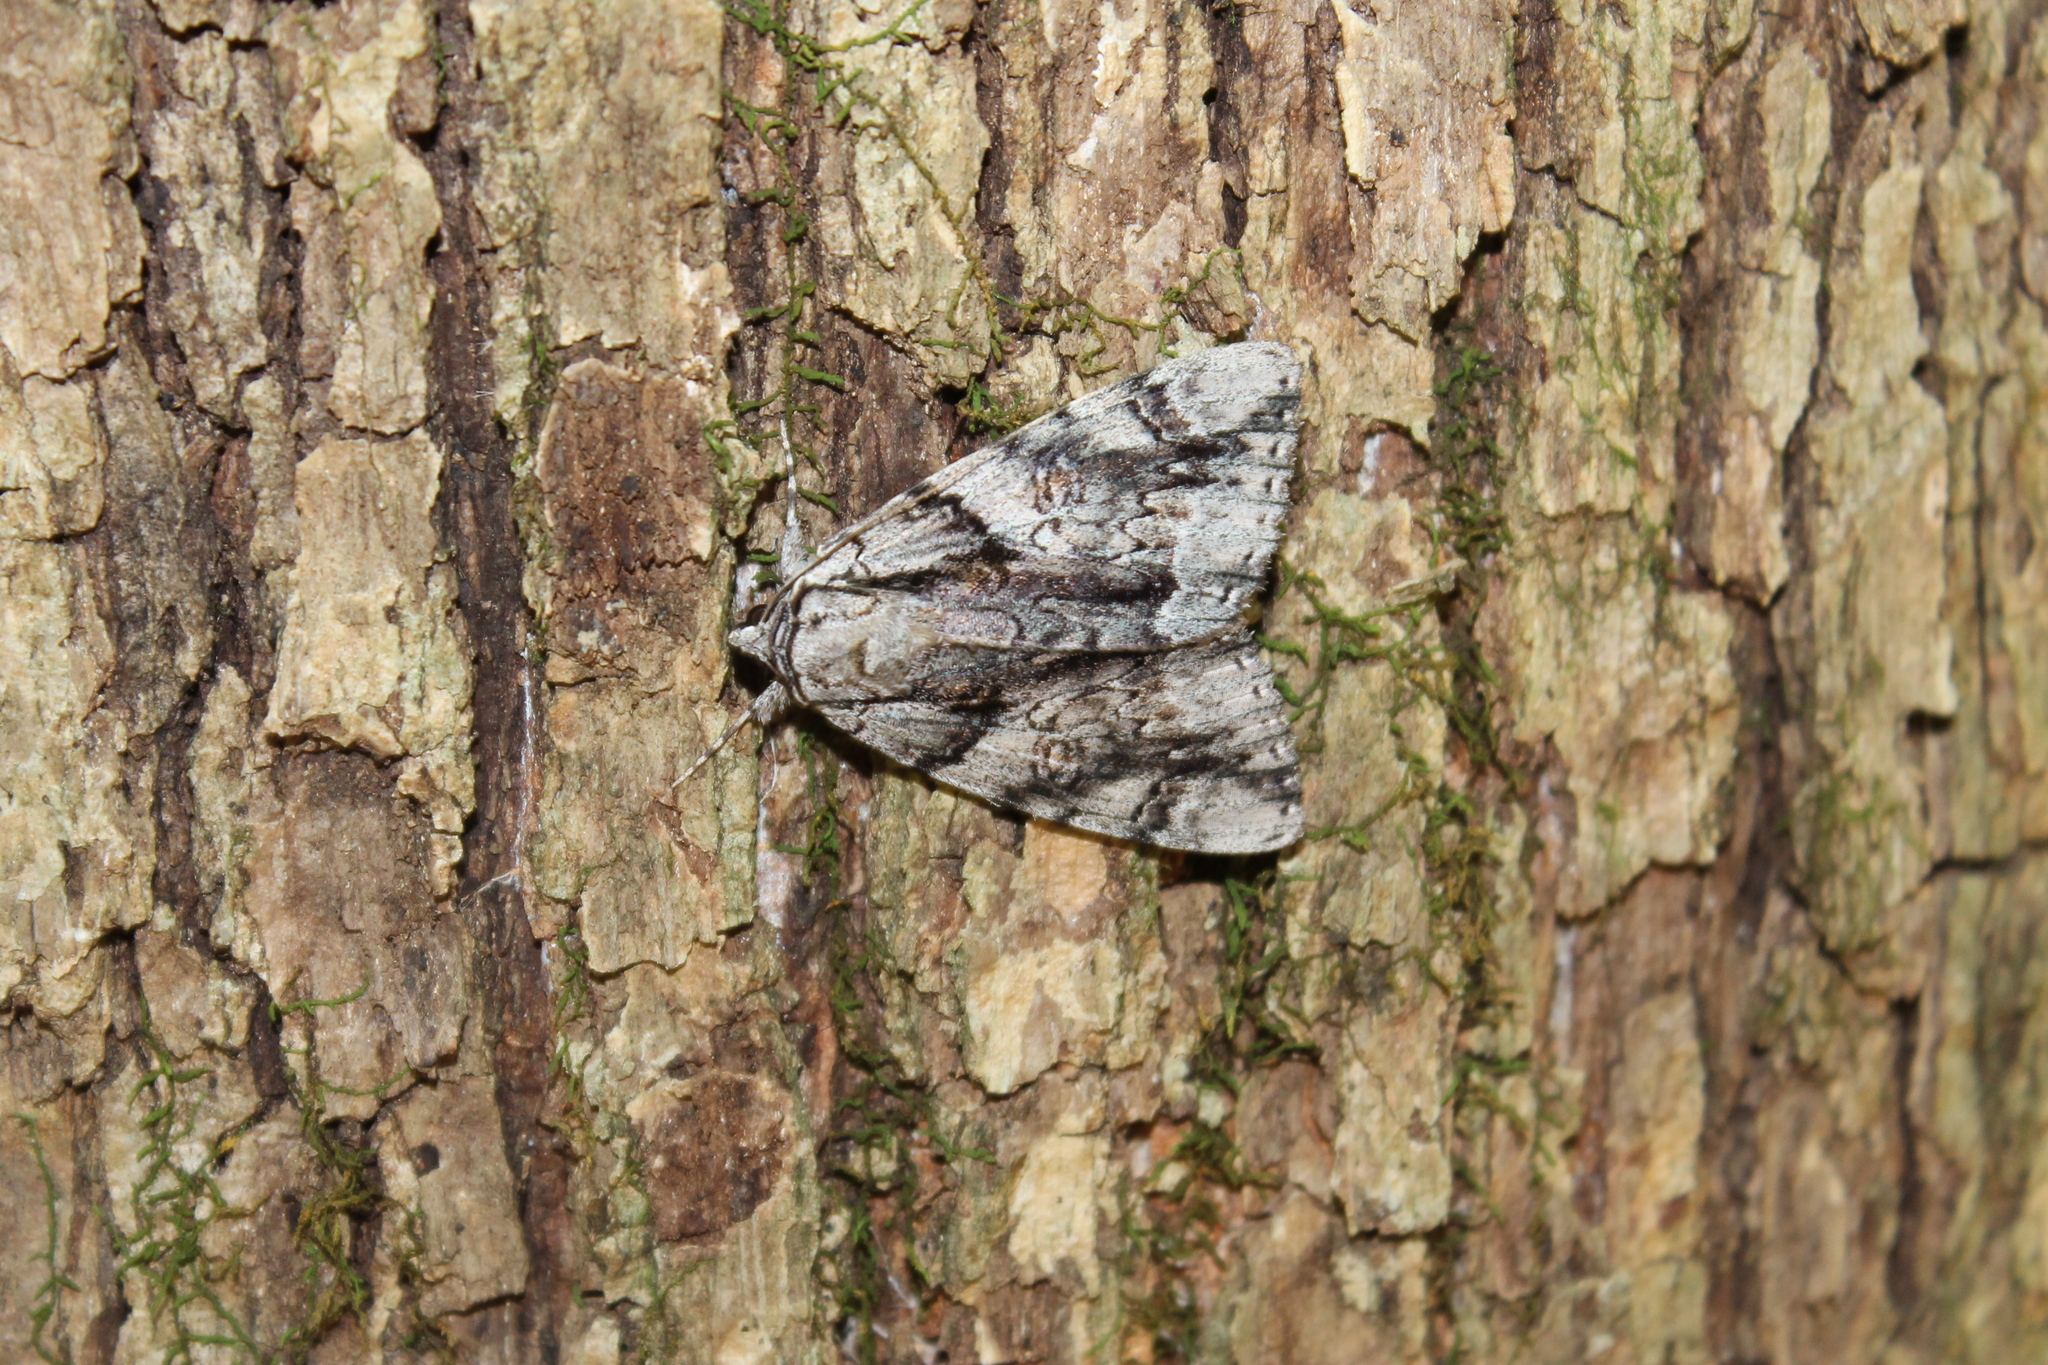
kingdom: Animalia
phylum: Arthropoda
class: Insecta
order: Lepidoptera
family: Erebidae
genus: Catocala
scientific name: Catocala vidua
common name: The widow
